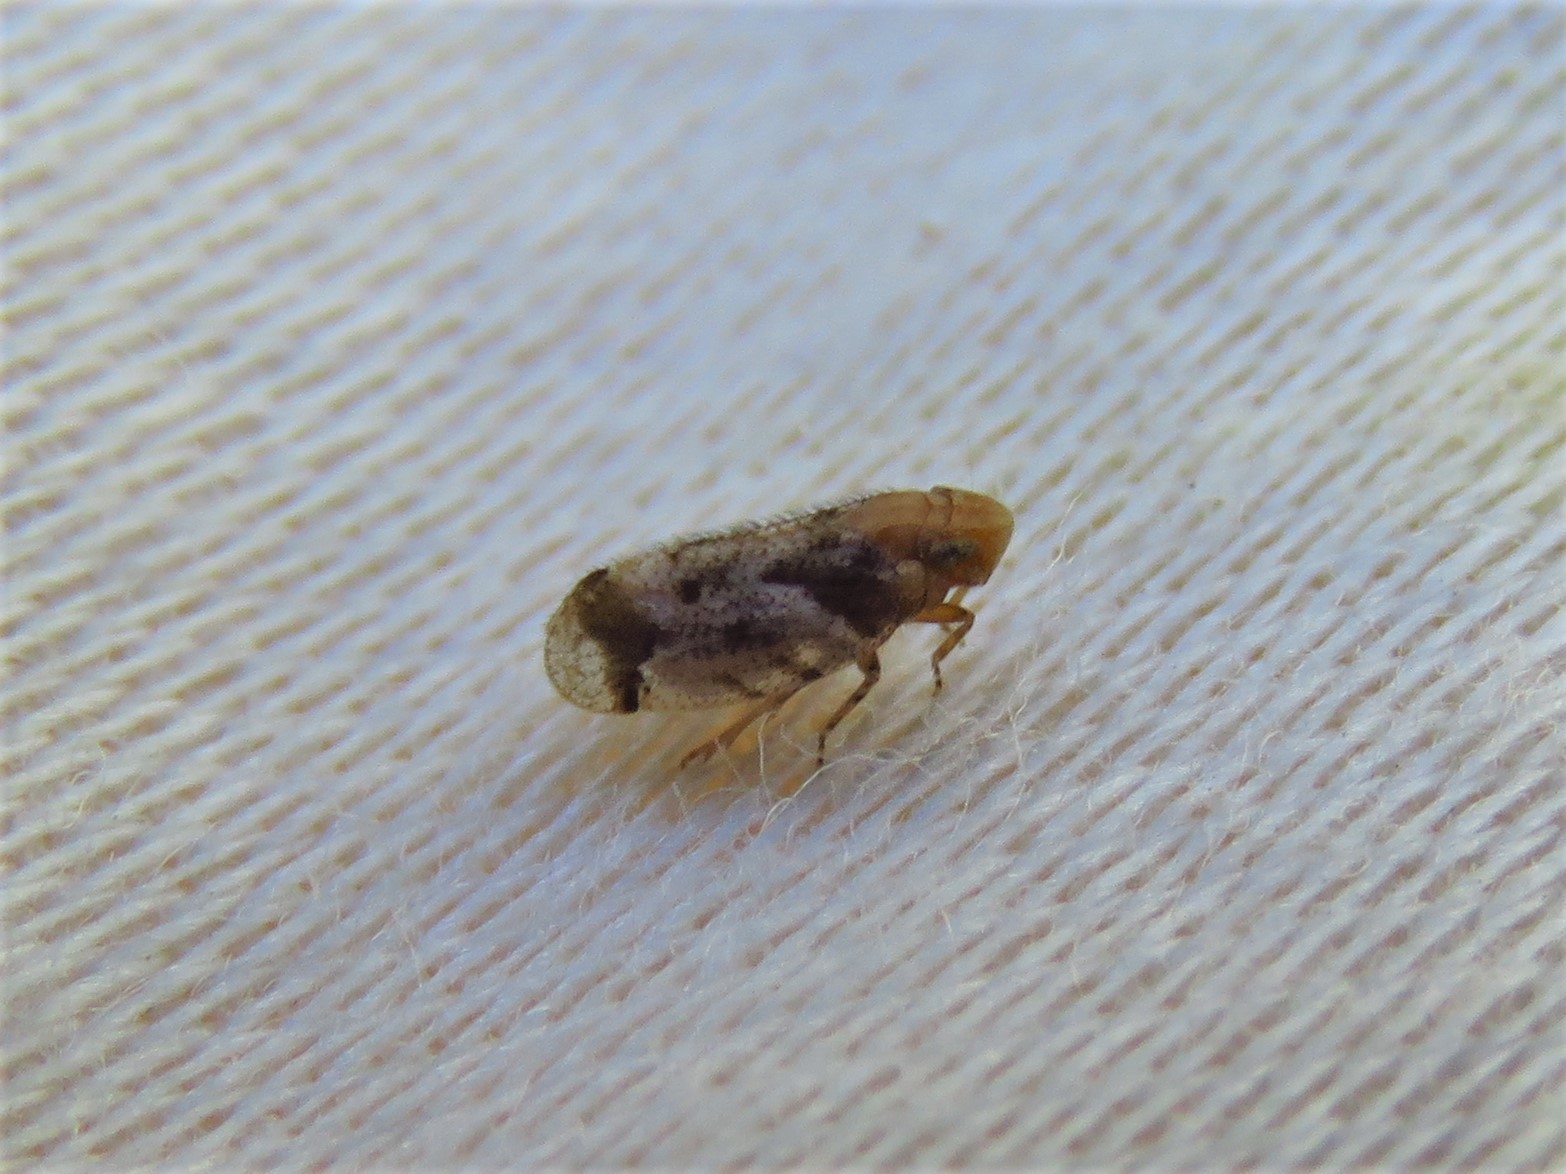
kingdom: Animalia
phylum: Arthropoda
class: Insecta
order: Hemiptera
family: Cixiidae
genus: Microledrida
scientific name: Microledrida fuscata
